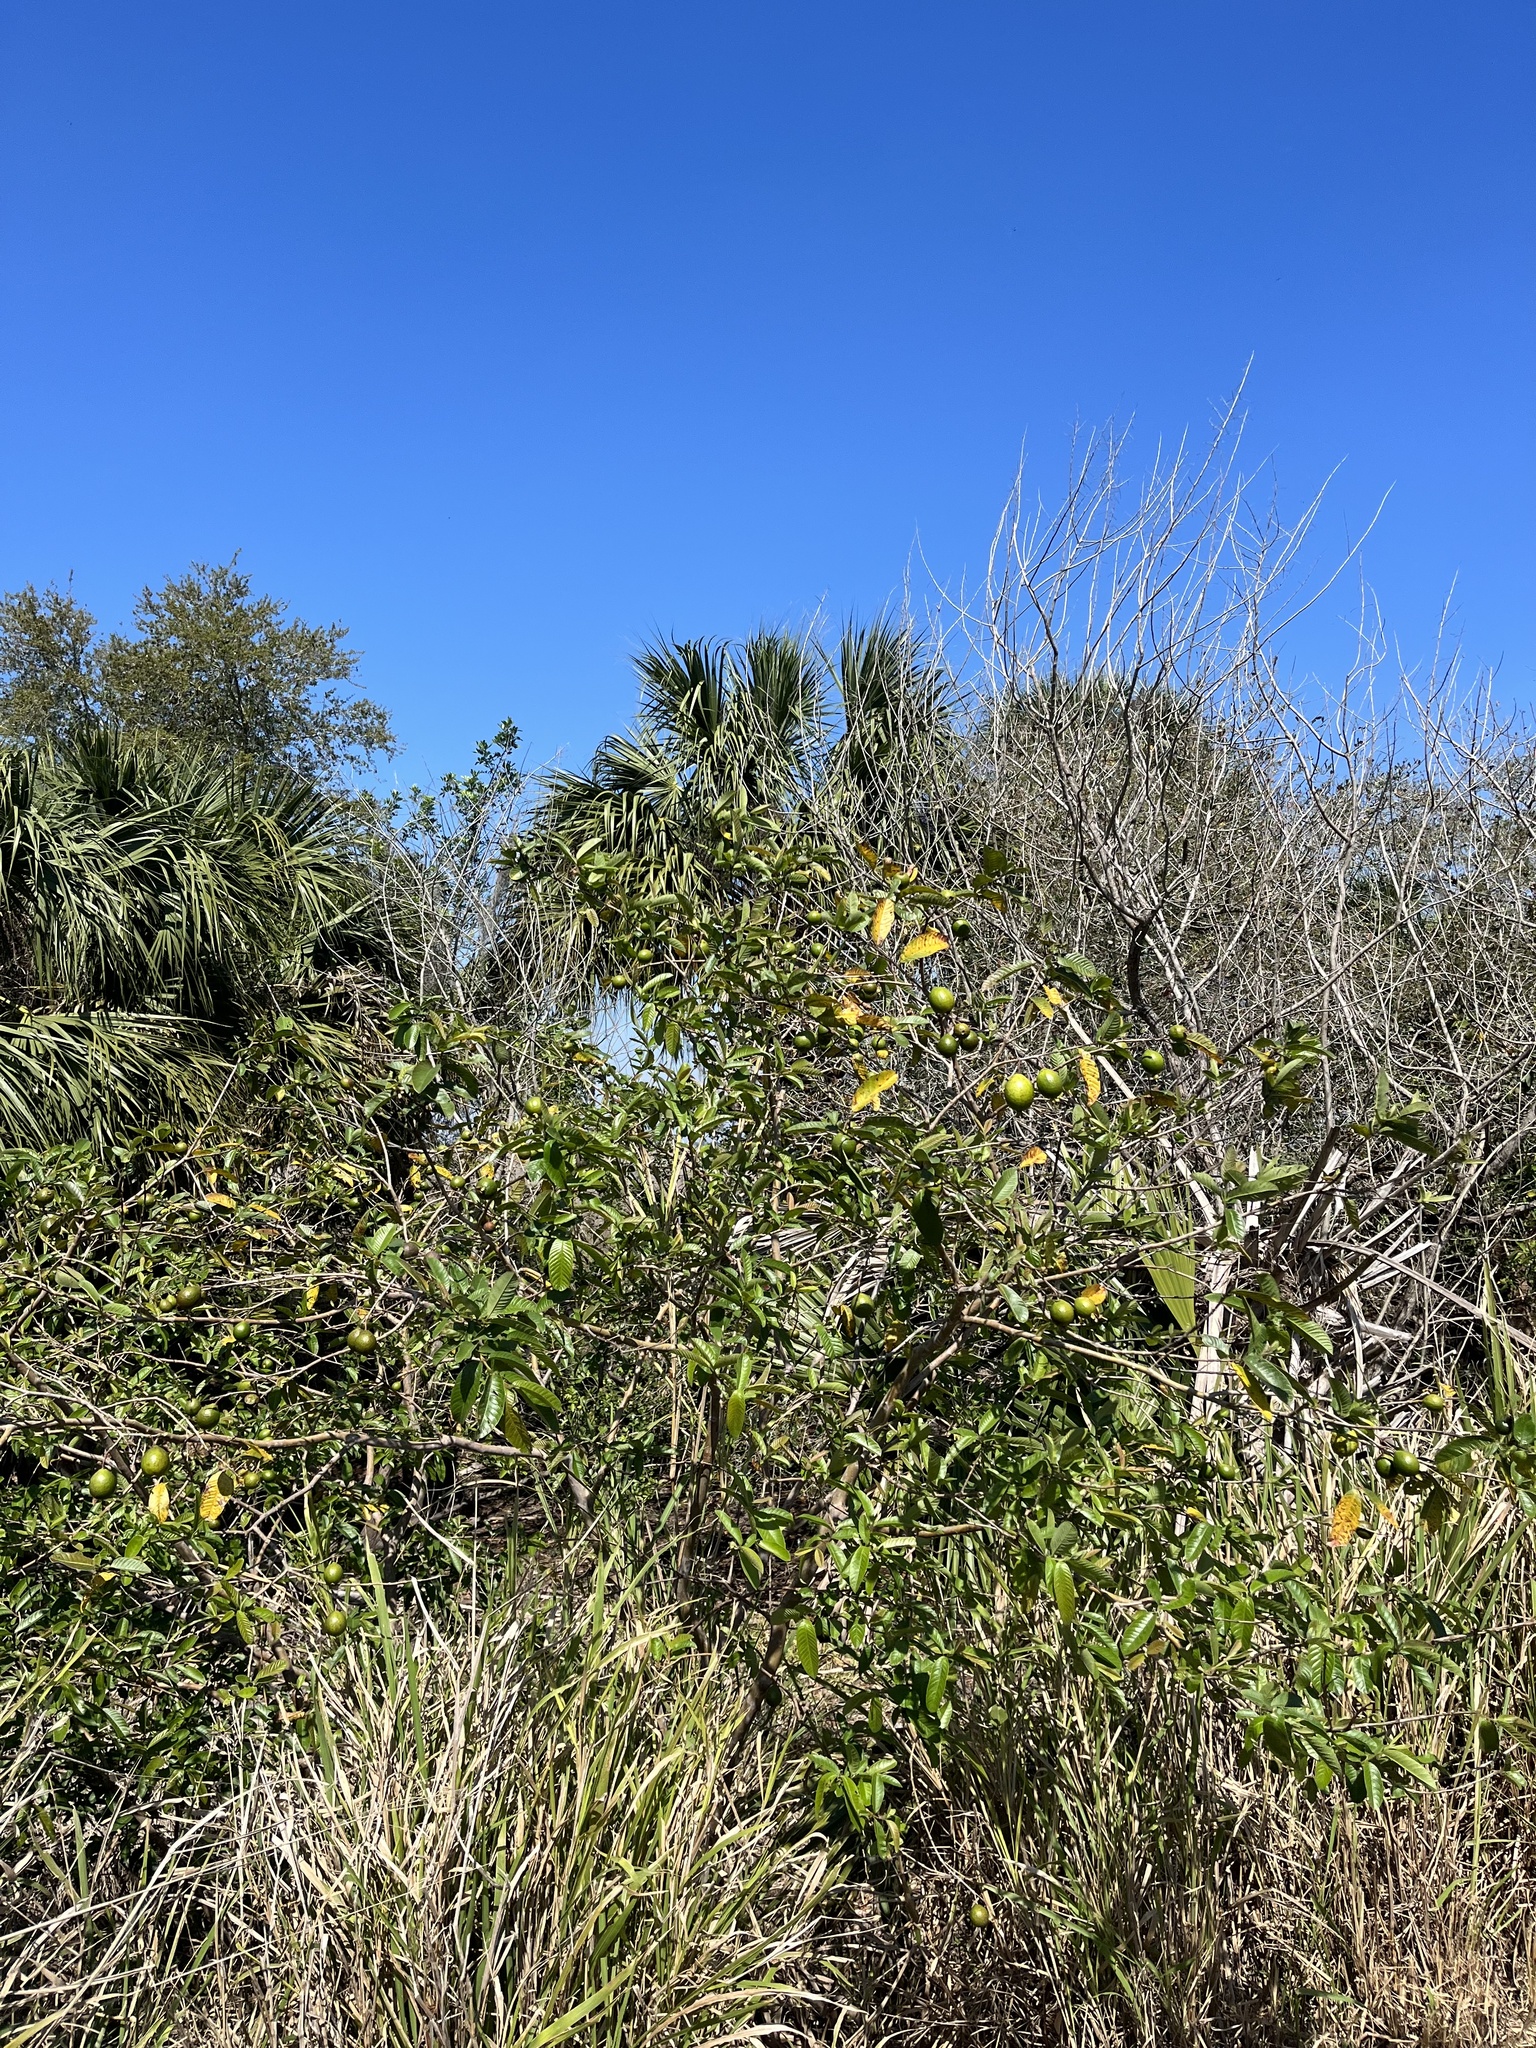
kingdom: Plantae
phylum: Tracheophyta
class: Magnoliopsida
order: Myrtales
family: Myrtaceae
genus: Psidium
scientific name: Psidium guajava
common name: Guava
